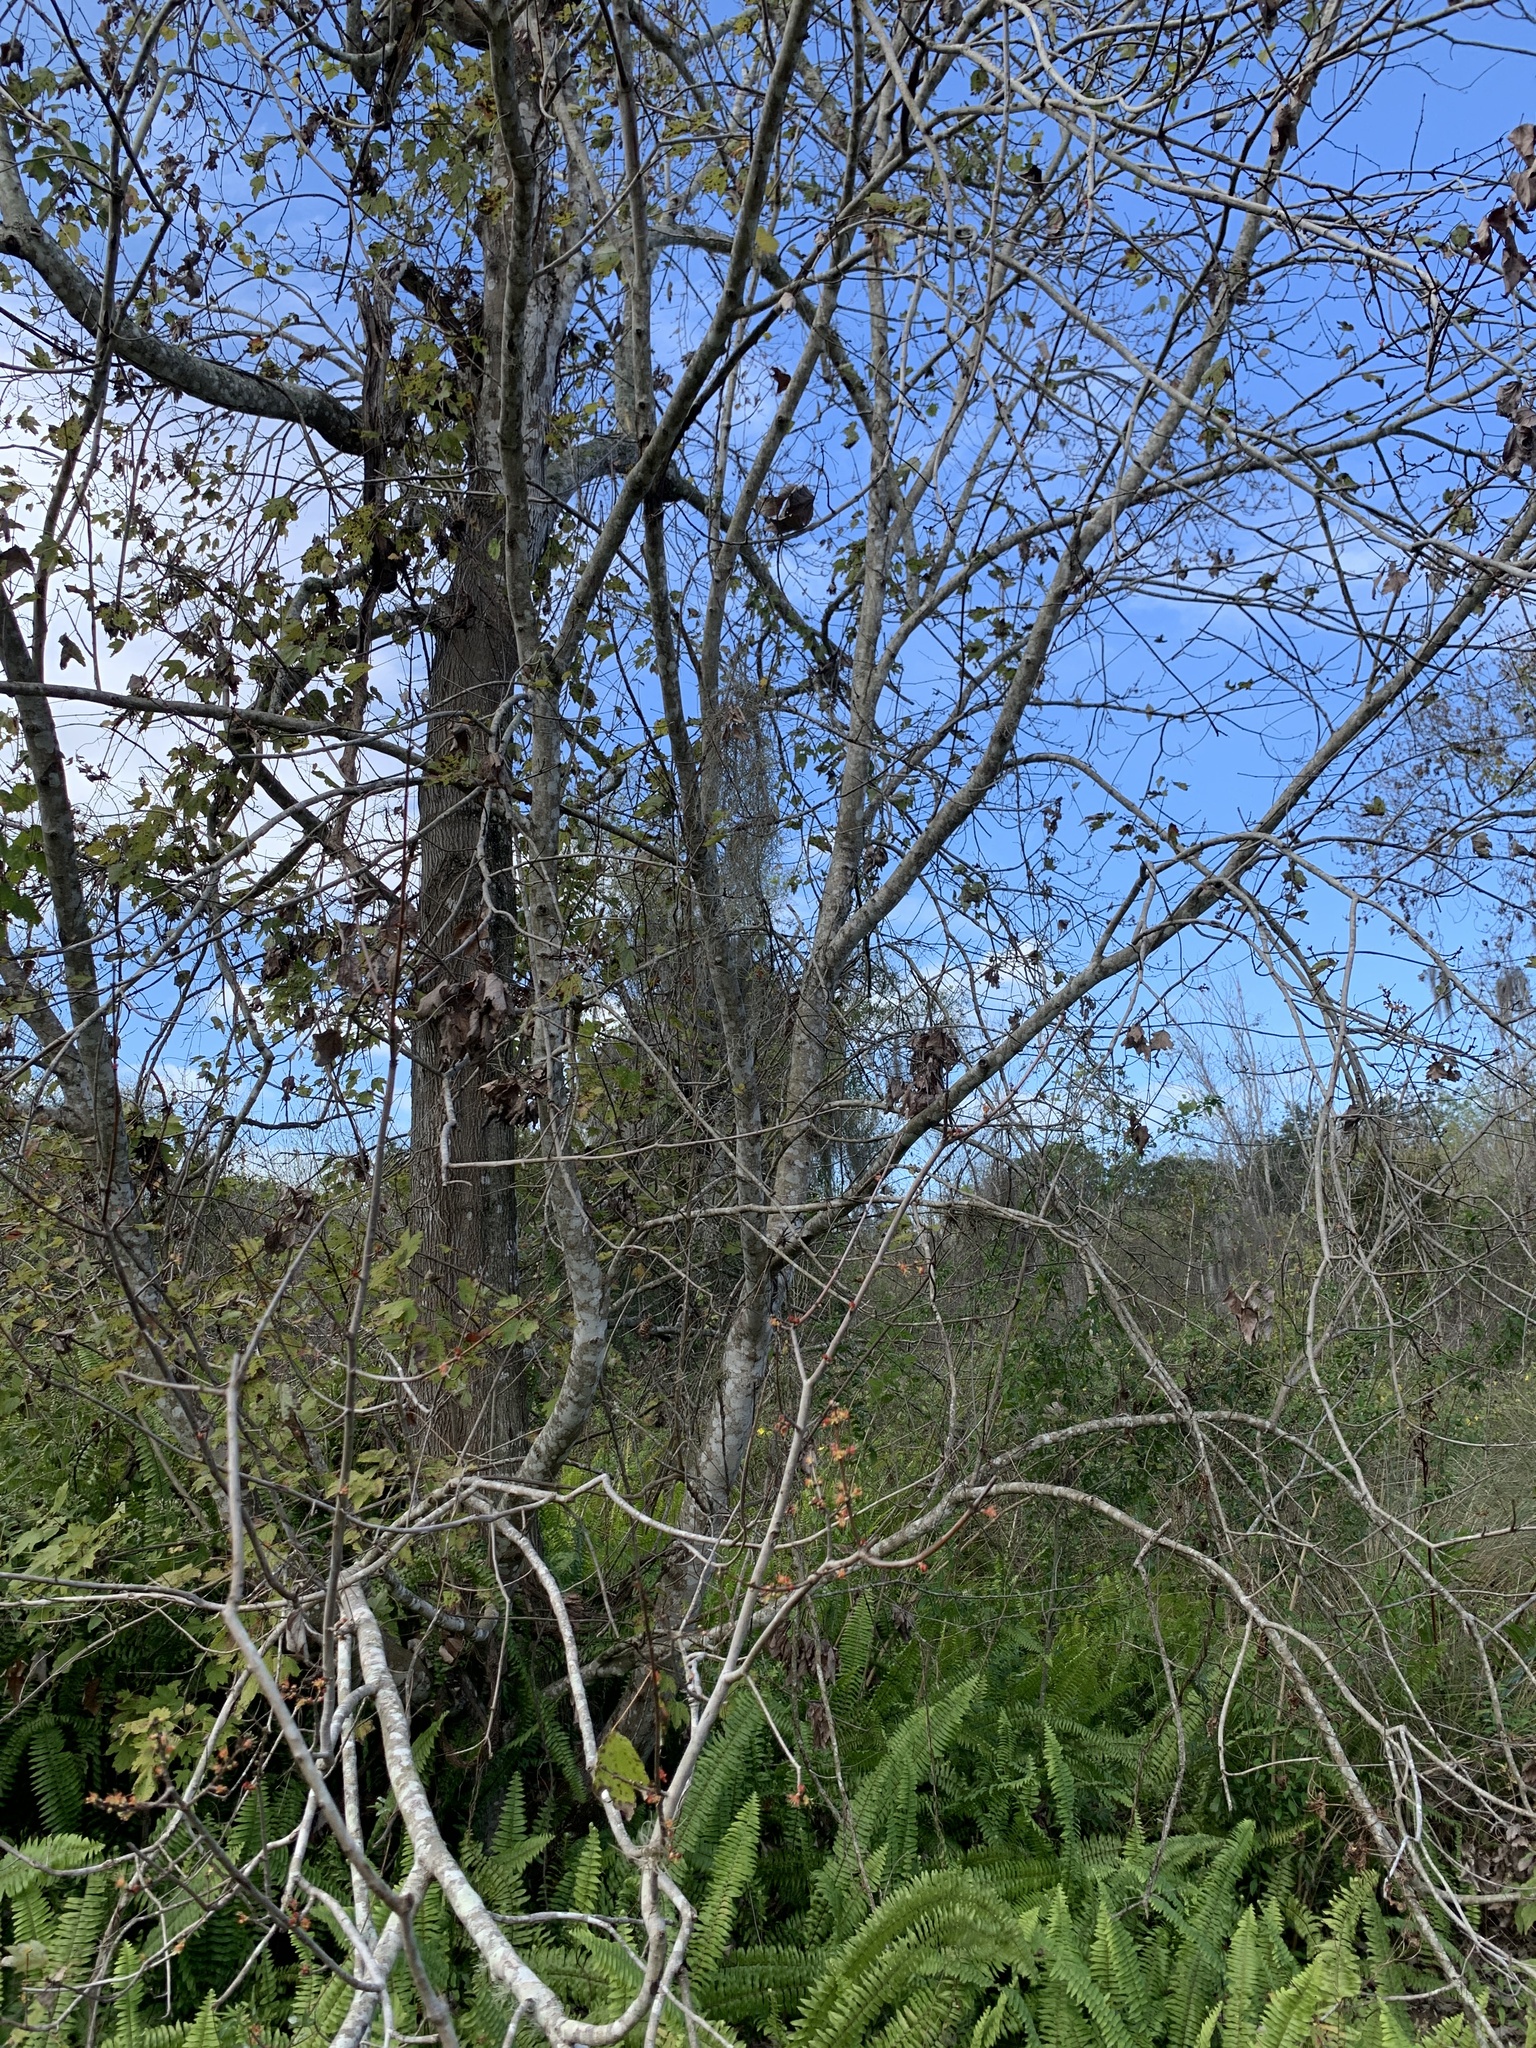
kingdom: Plantae
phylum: Tracheophyta
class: Magnoliopsida
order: Sapindales
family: Sapindaceae
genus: Acer
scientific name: Acer rubrum
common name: Red maple
